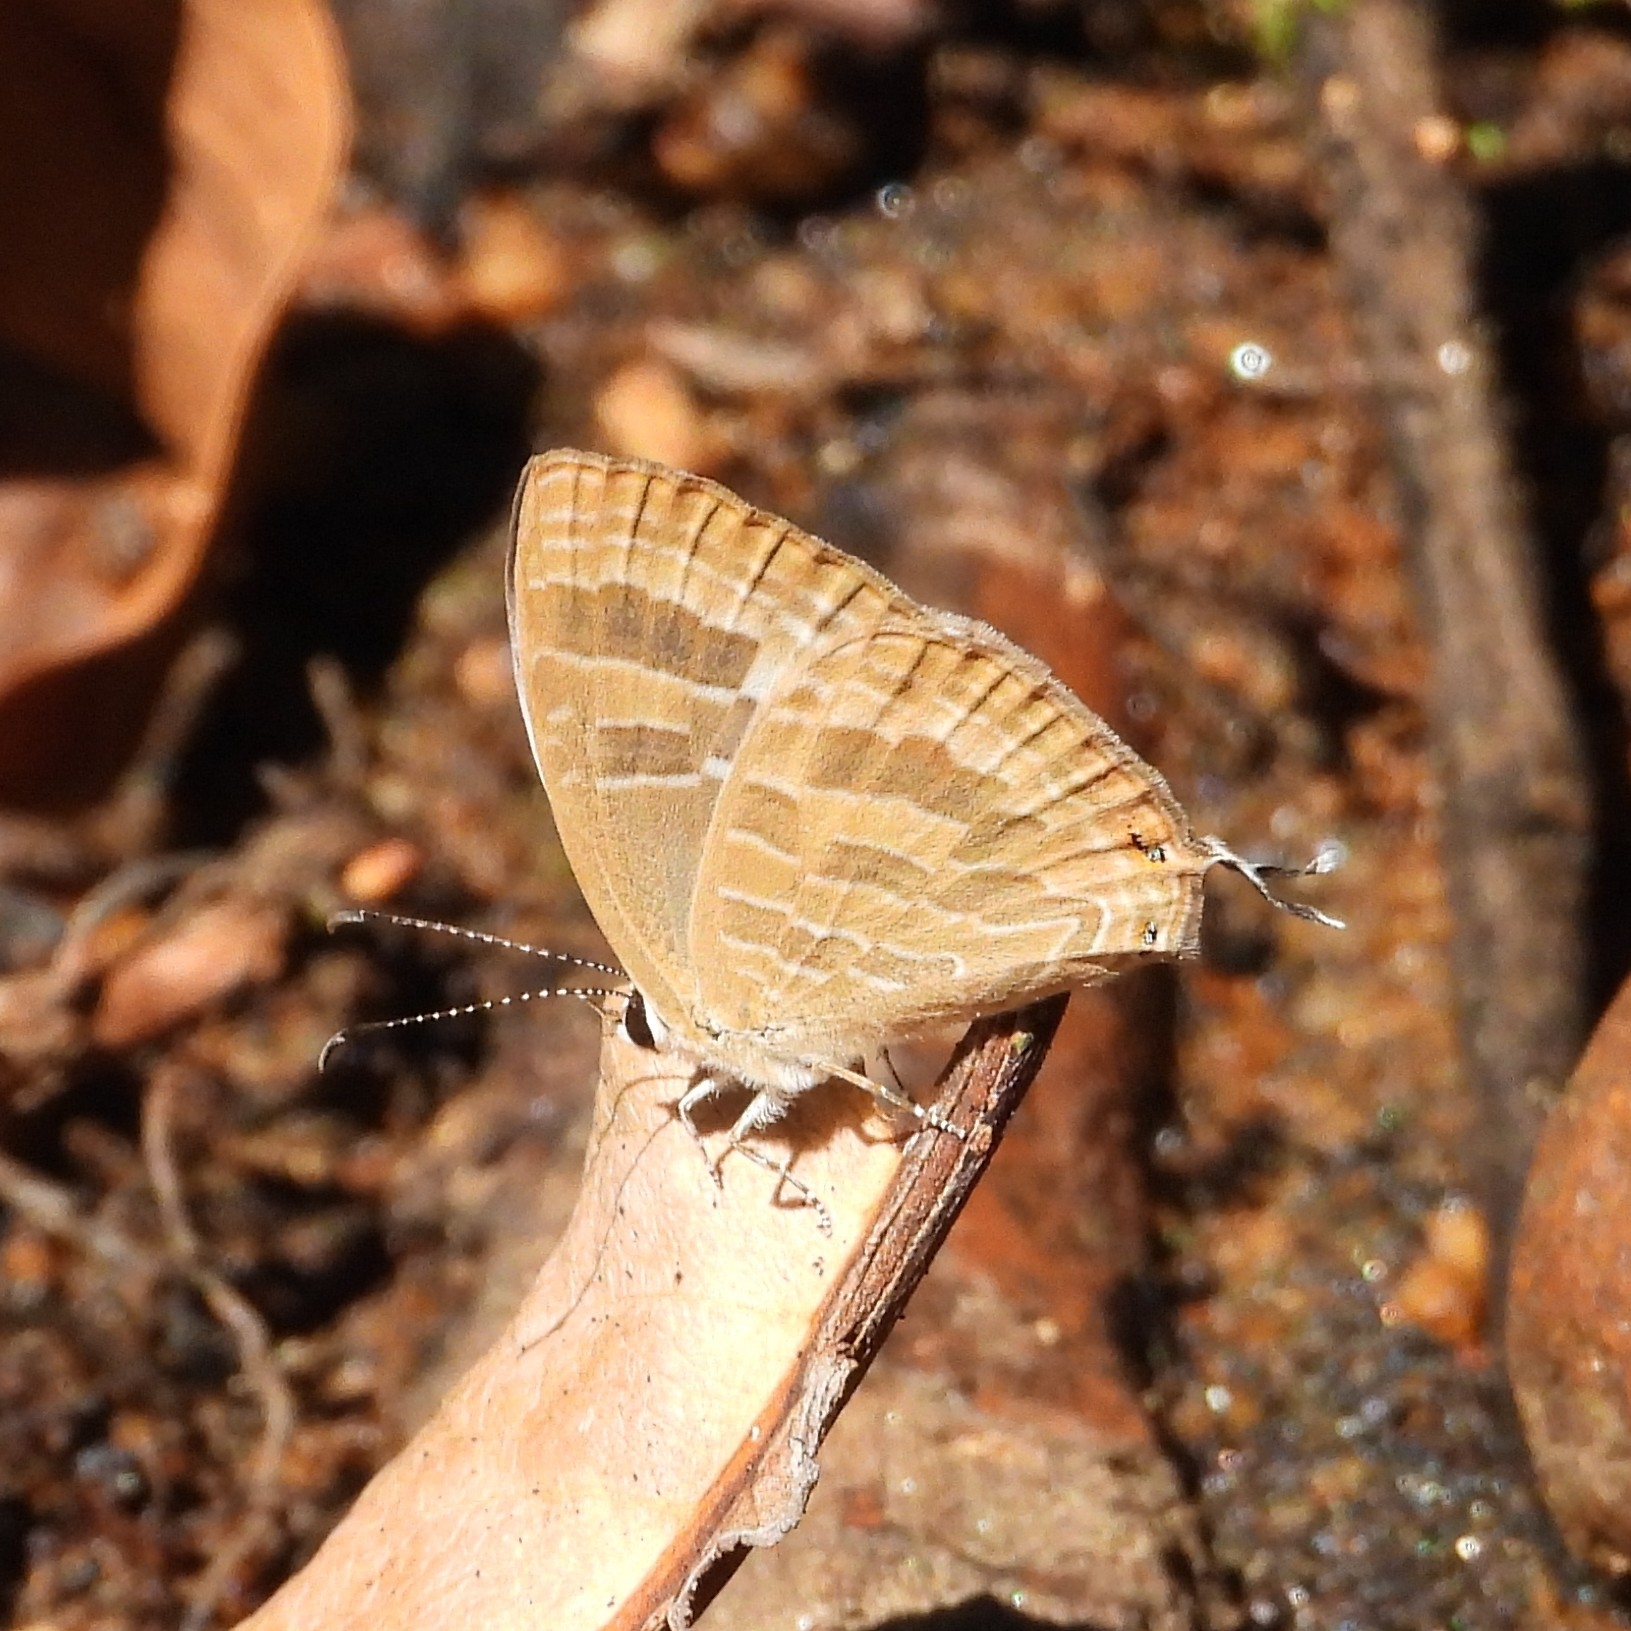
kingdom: Animalia
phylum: Arthropoda
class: Insecta
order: Lepidoptera
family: Lycaenidae
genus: Jamides
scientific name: Jamides celeno
